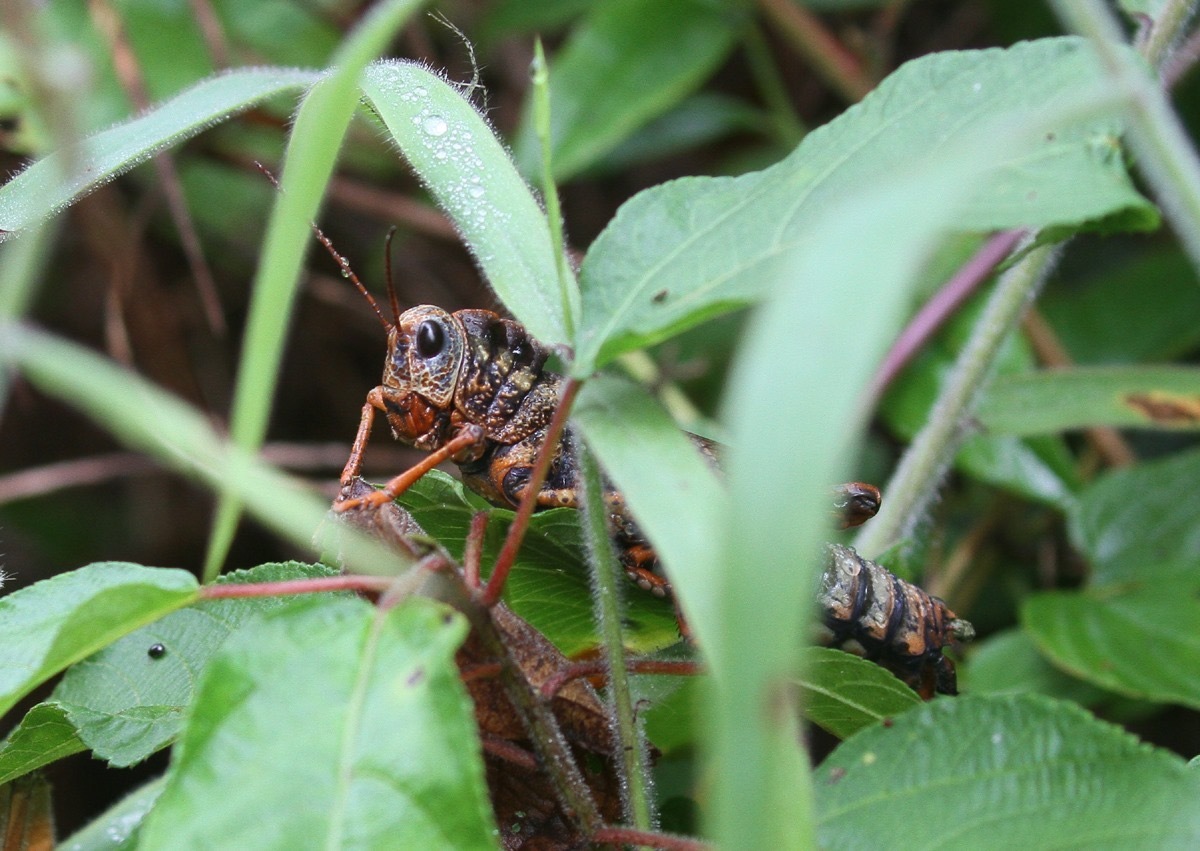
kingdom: Animalia
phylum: Arthropoda
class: Insecta
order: Orthoptera
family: Romaleidae
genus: Thrasyderes
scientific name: Thrasyderes leprosus
